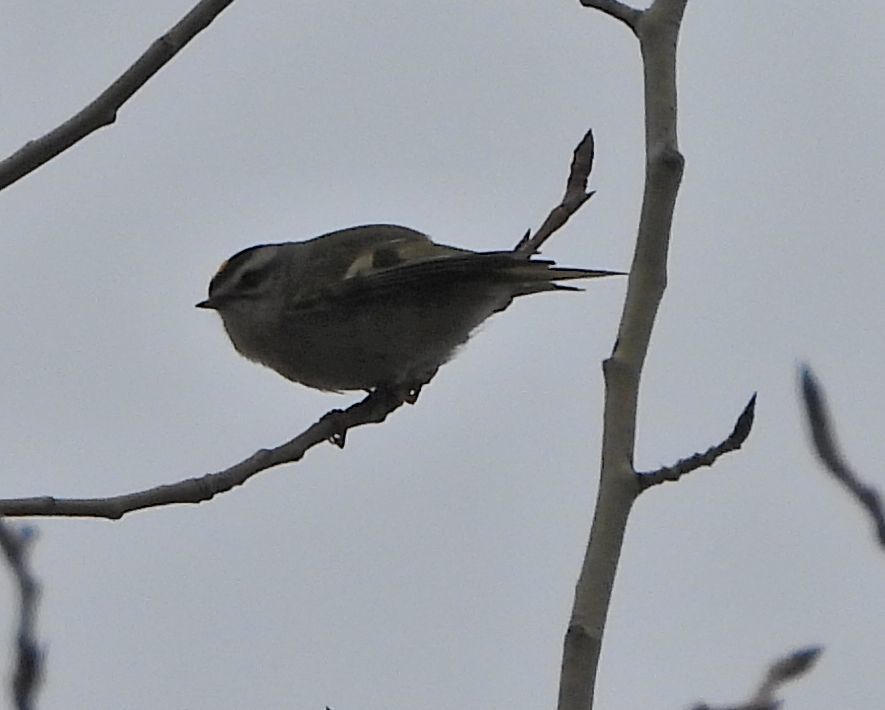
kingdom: Animalia
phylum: Chordata
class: Aves
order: Passeriformes
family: Regulidae
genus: Regulus
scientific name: Regulus satrapa
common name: Golden-crowned kinglet
